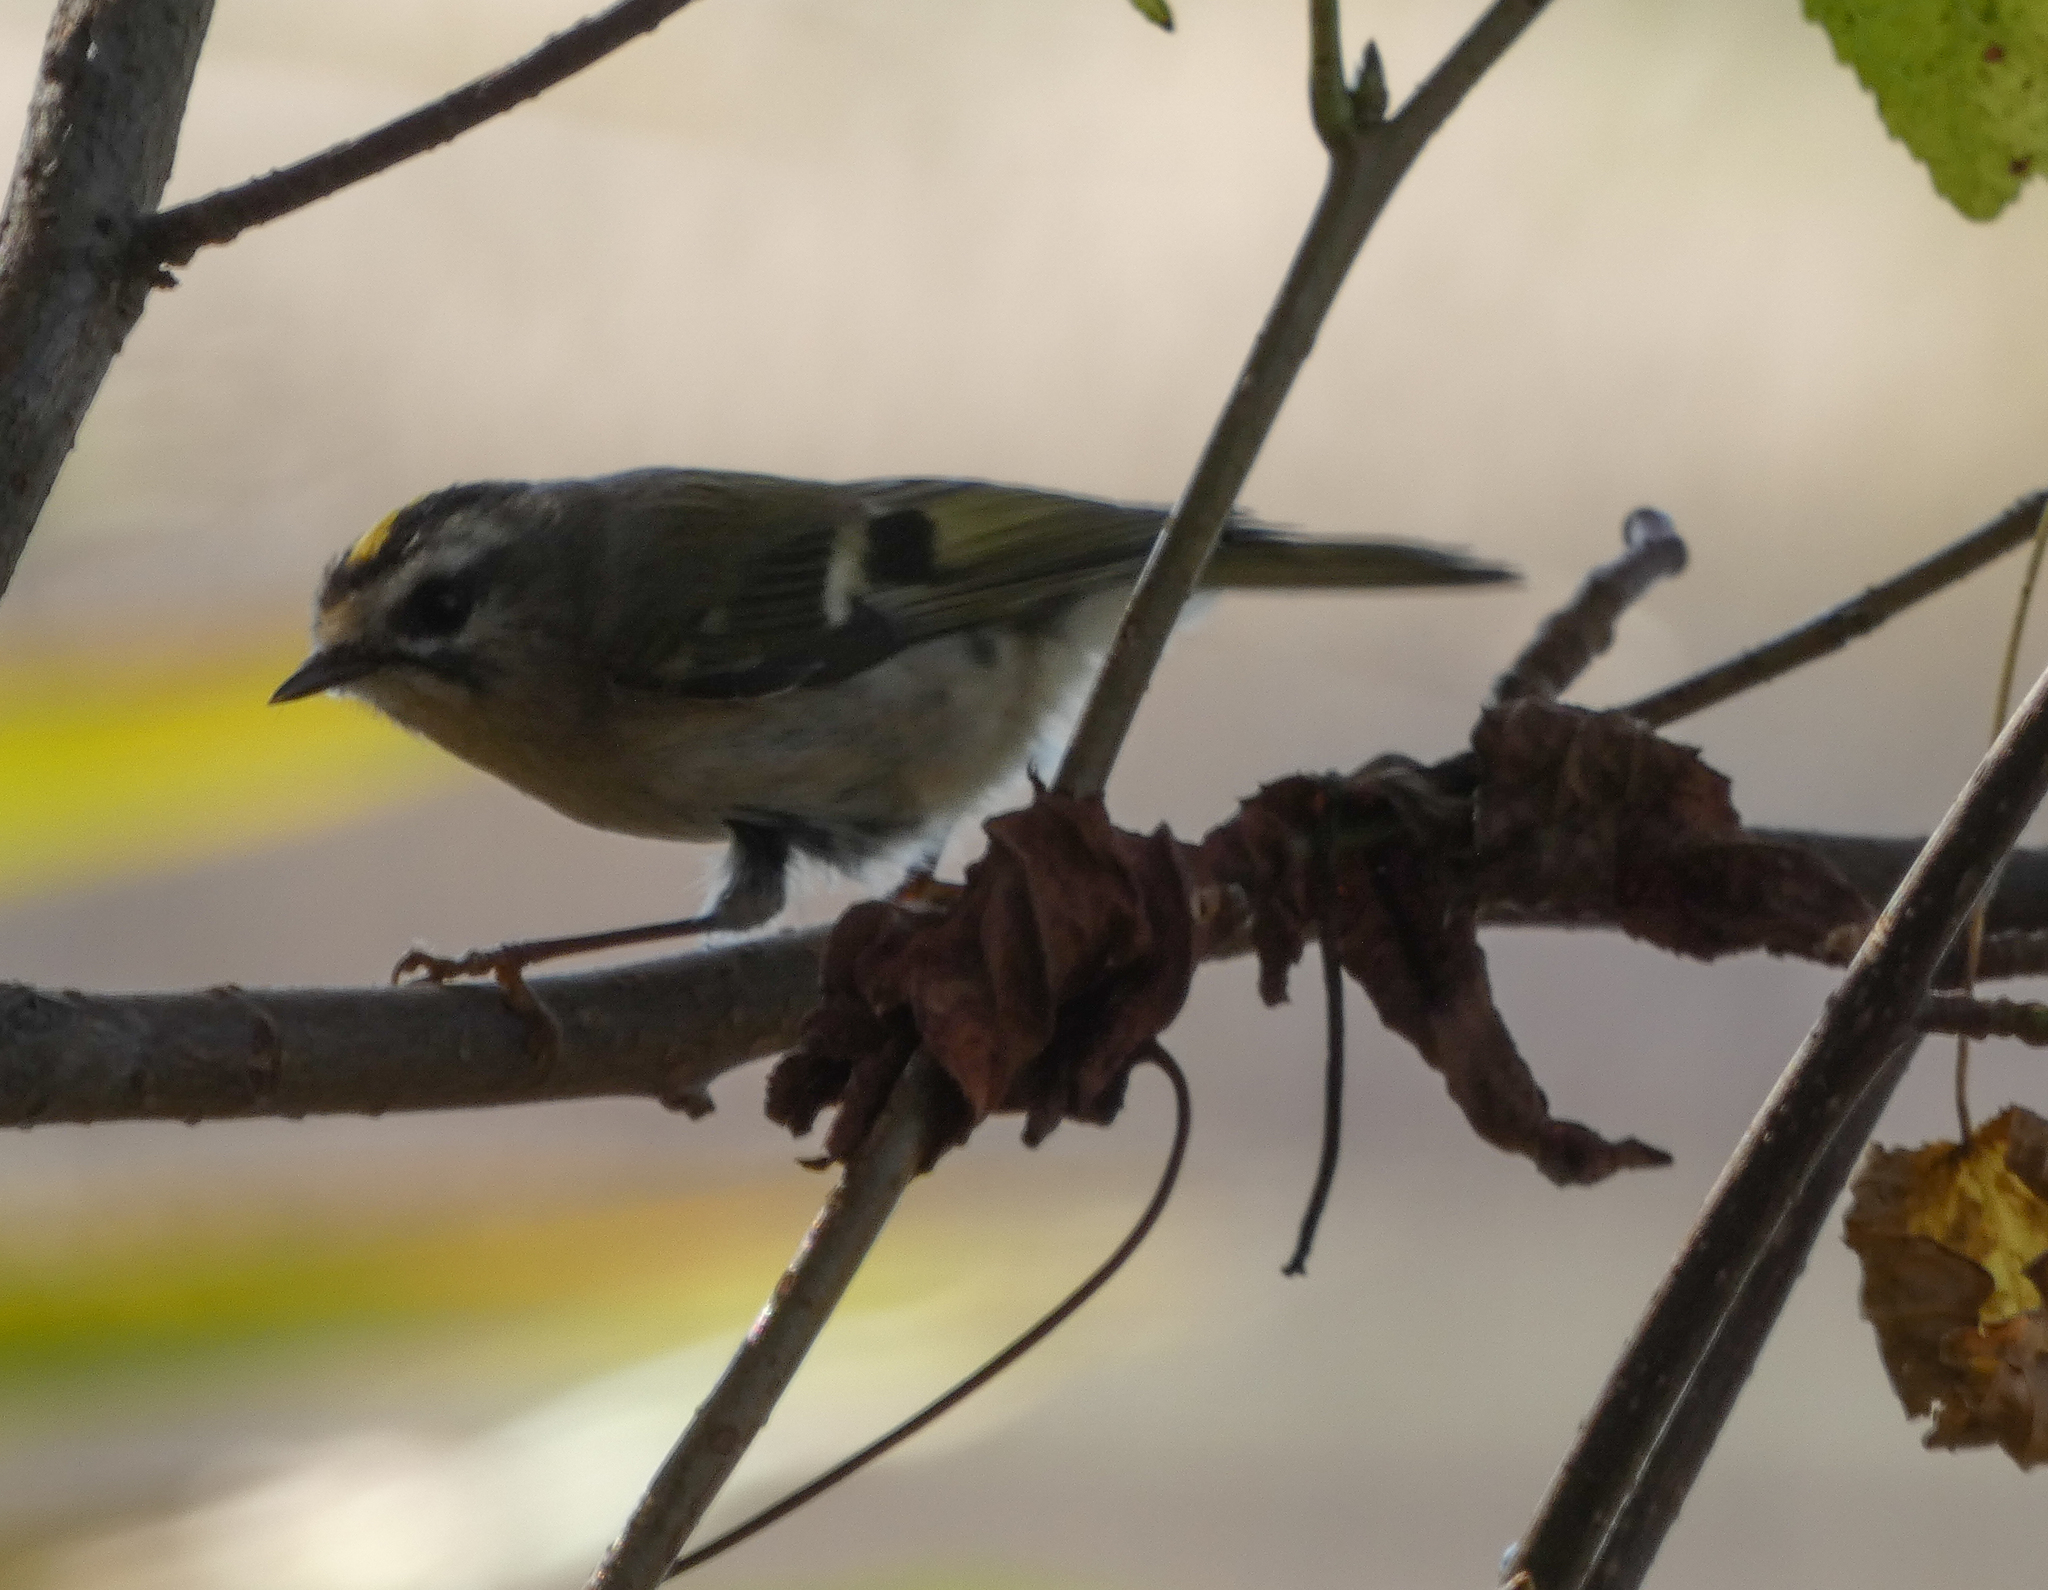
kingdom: Animalia
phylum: Chordata
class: Aves
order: Passeriformes
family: Regulidae
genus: Regulus
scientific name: Regulus satrapa
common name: Golden-crowned kinglet
